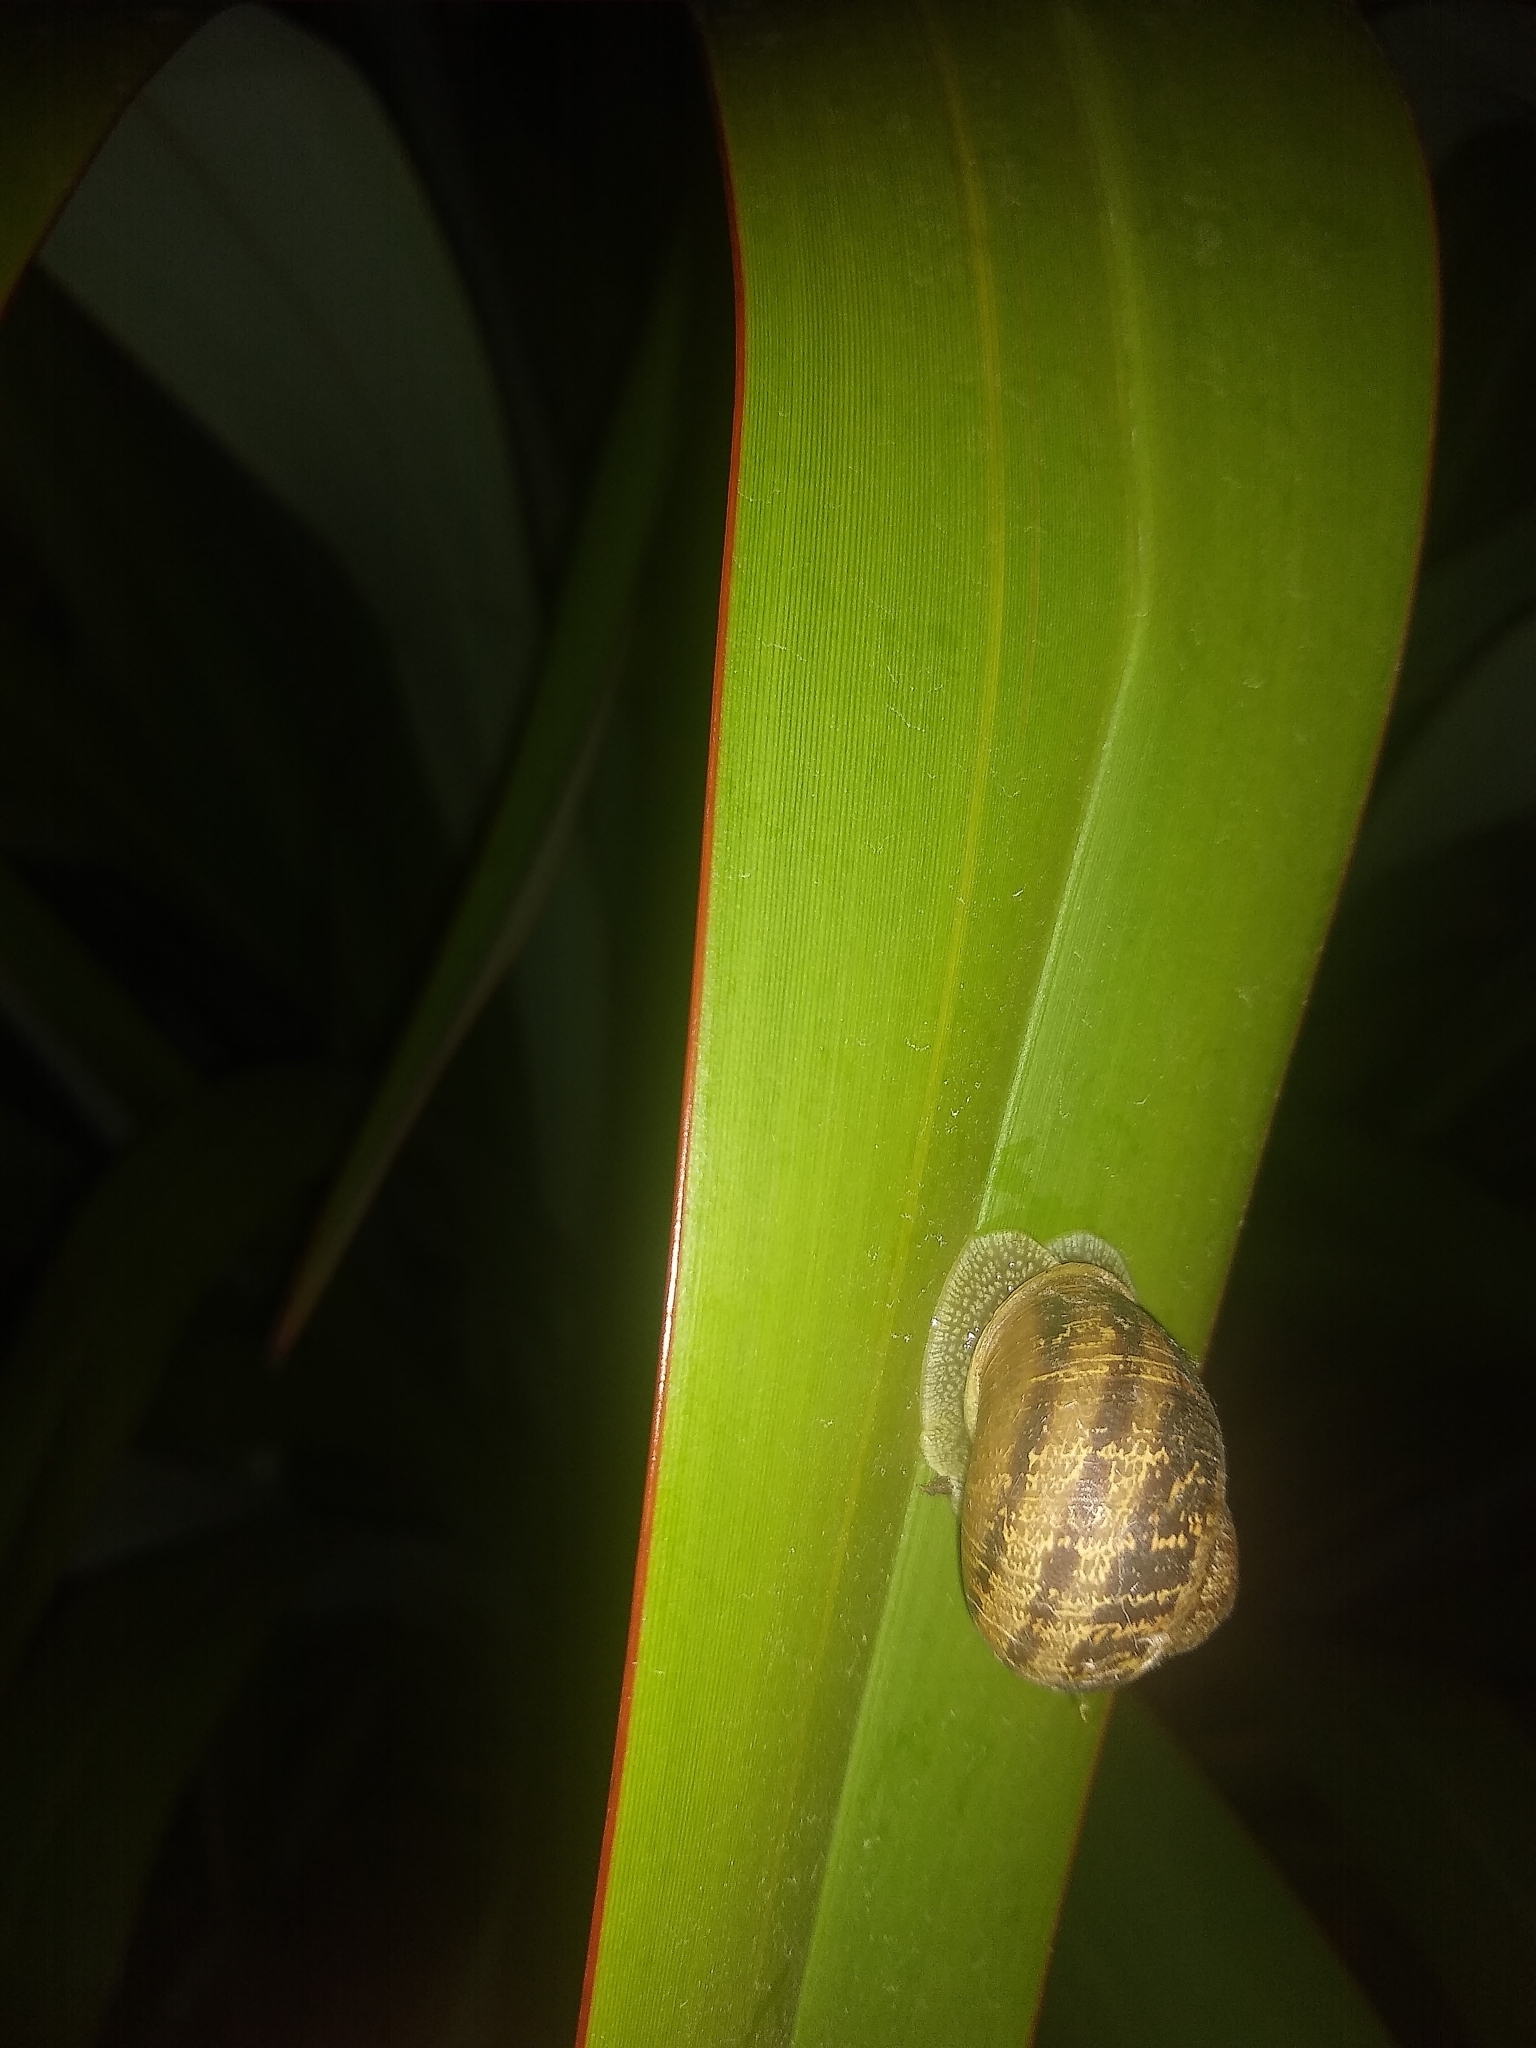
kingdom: Animalia
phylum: Mollusca
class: Gastropoda
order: Stylommatophora
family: Helicidae
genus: Cornu
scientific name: Cornu aspersum
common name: Brown garden snail
